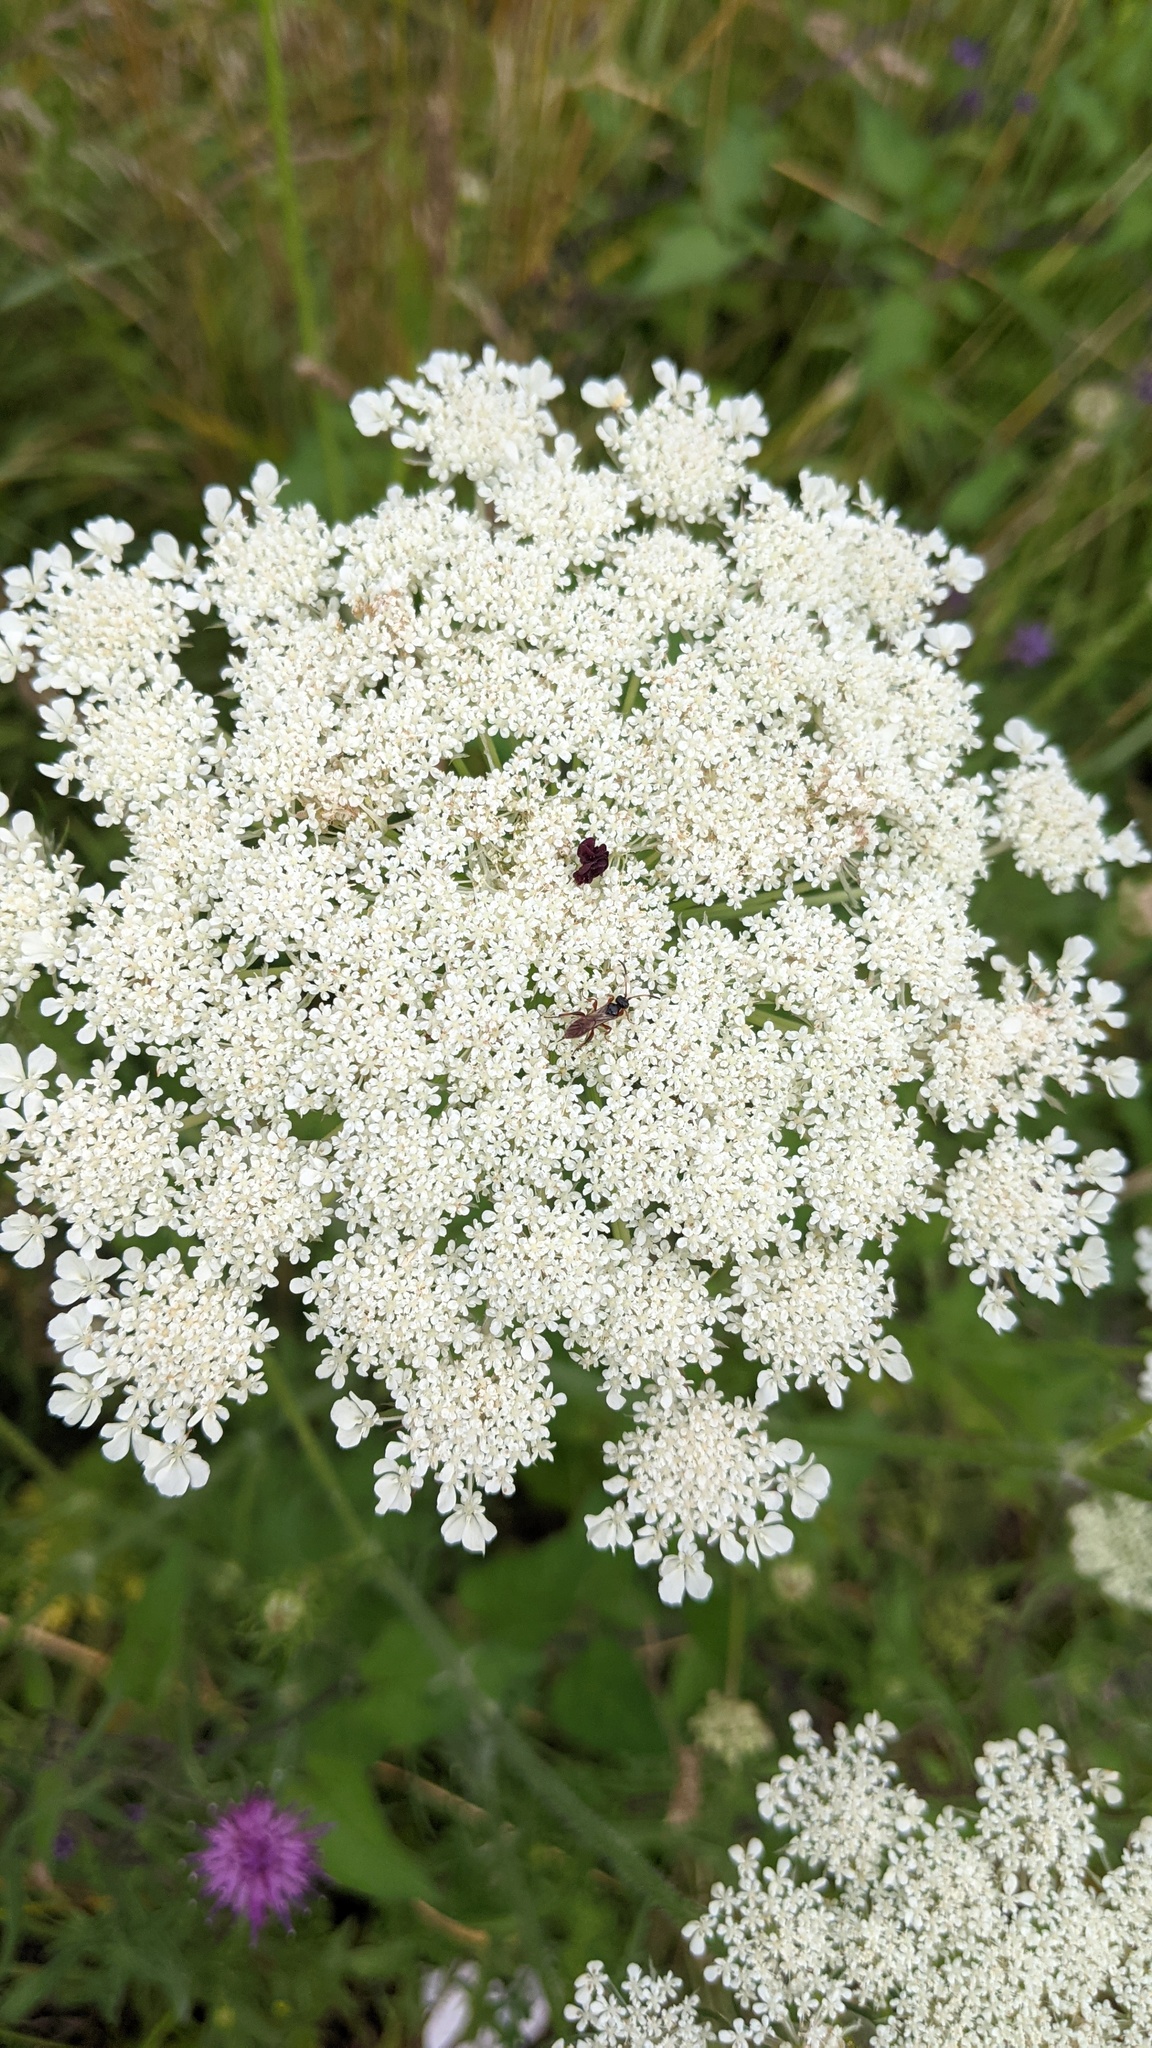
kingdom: Plantae
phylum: Tracheophyta
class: Magnoliopsida
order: Apiales
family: Apiaceae
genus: Daucus
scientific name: Daucus carota
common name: Wild carrot
